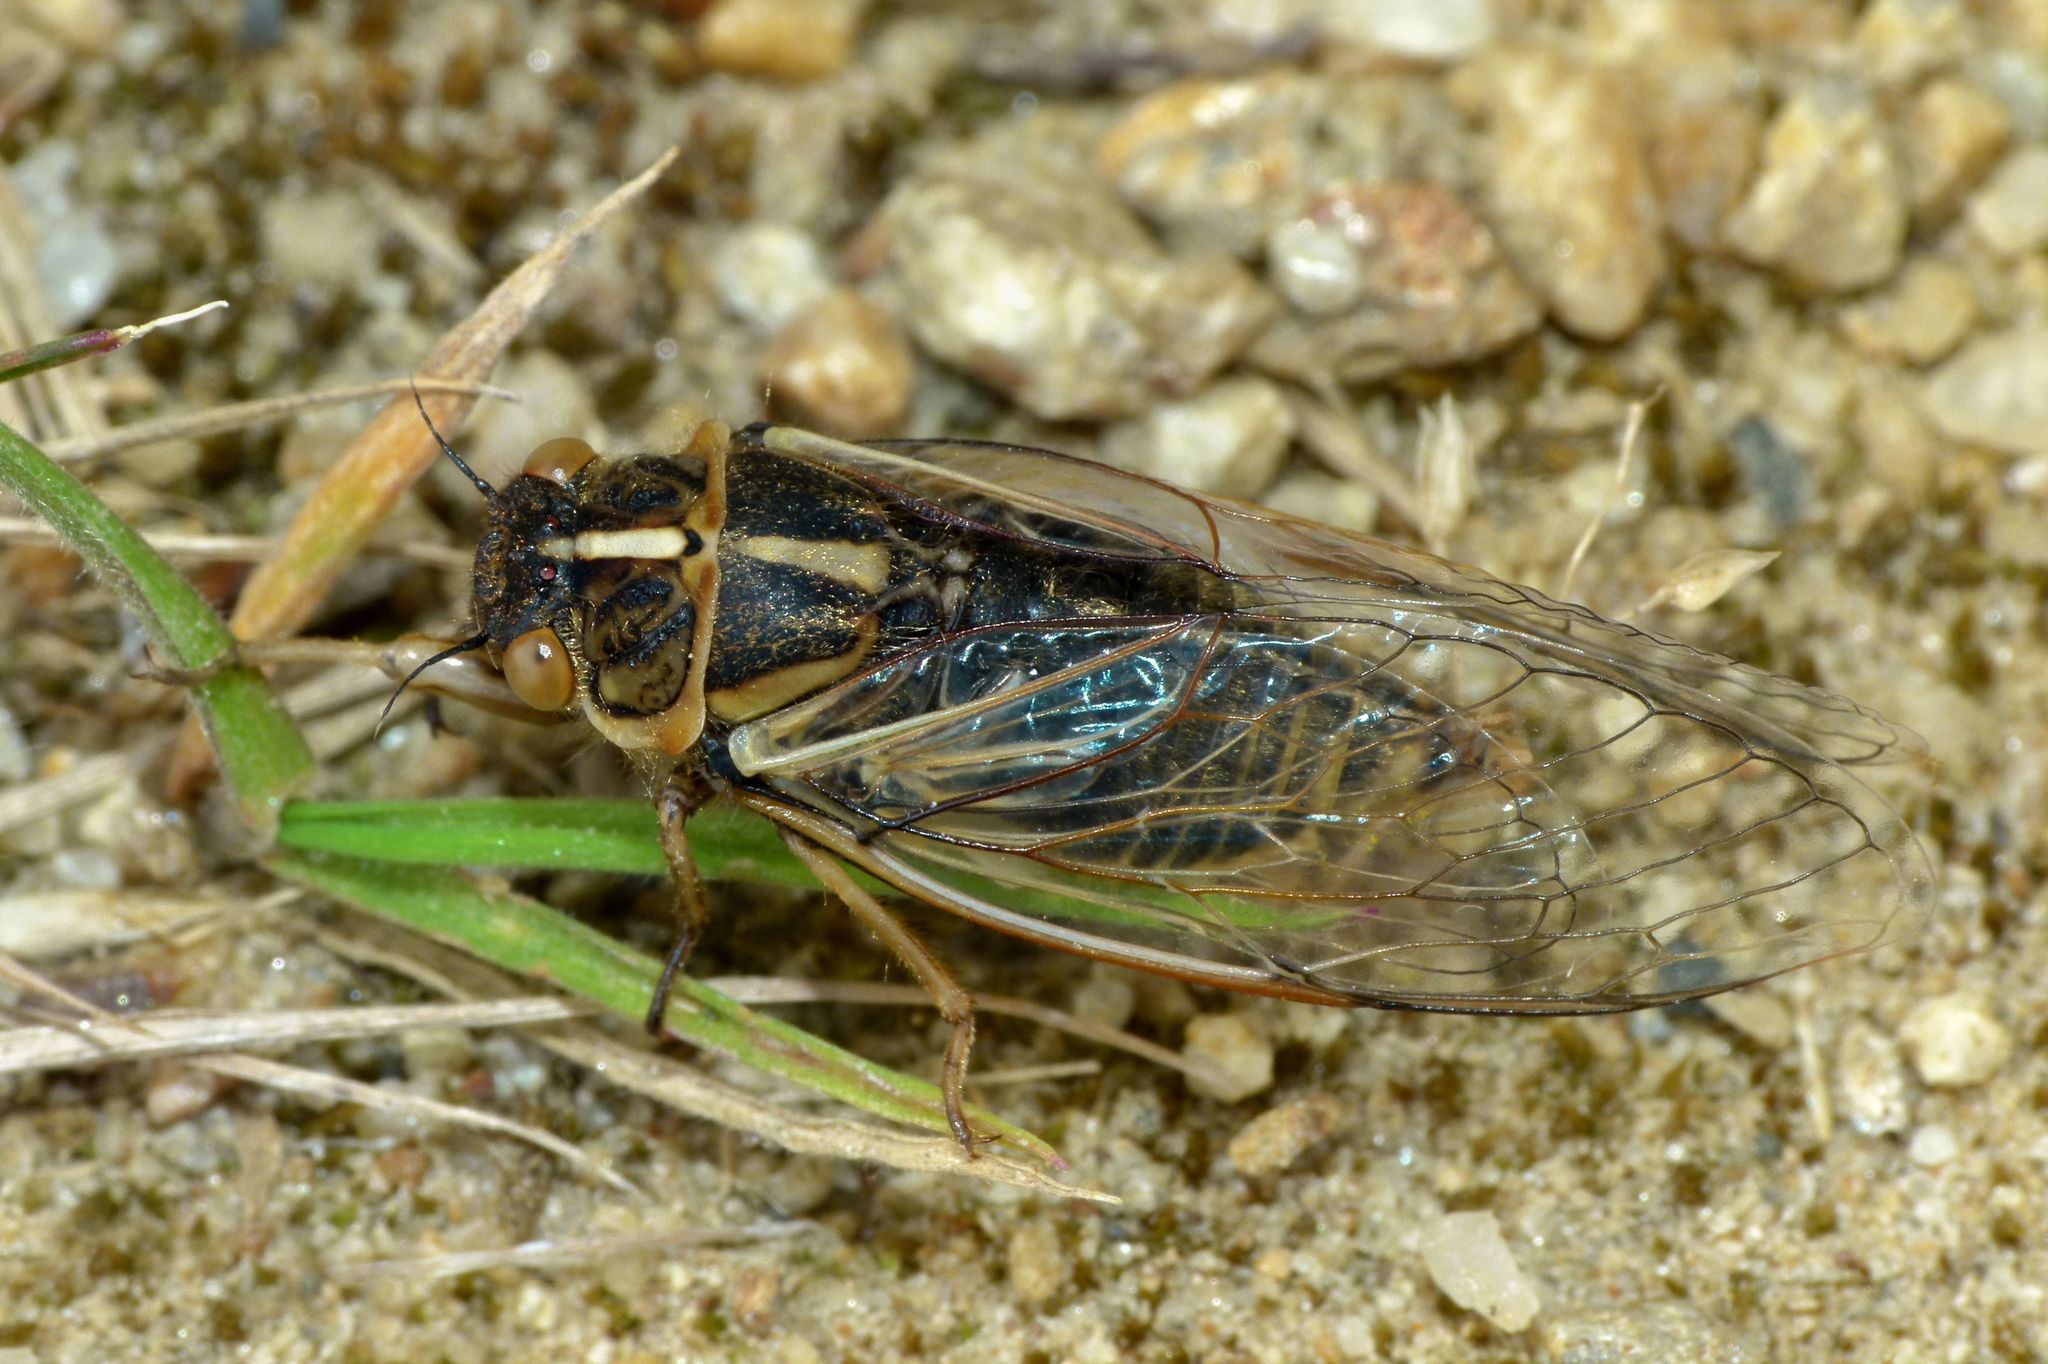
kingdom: Animalia
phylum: Arthropoda
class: Insecta
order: Hemiptera
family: Cicadidae
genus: Kikihia
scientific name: Kikihia angusta
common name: Tussock cicada
